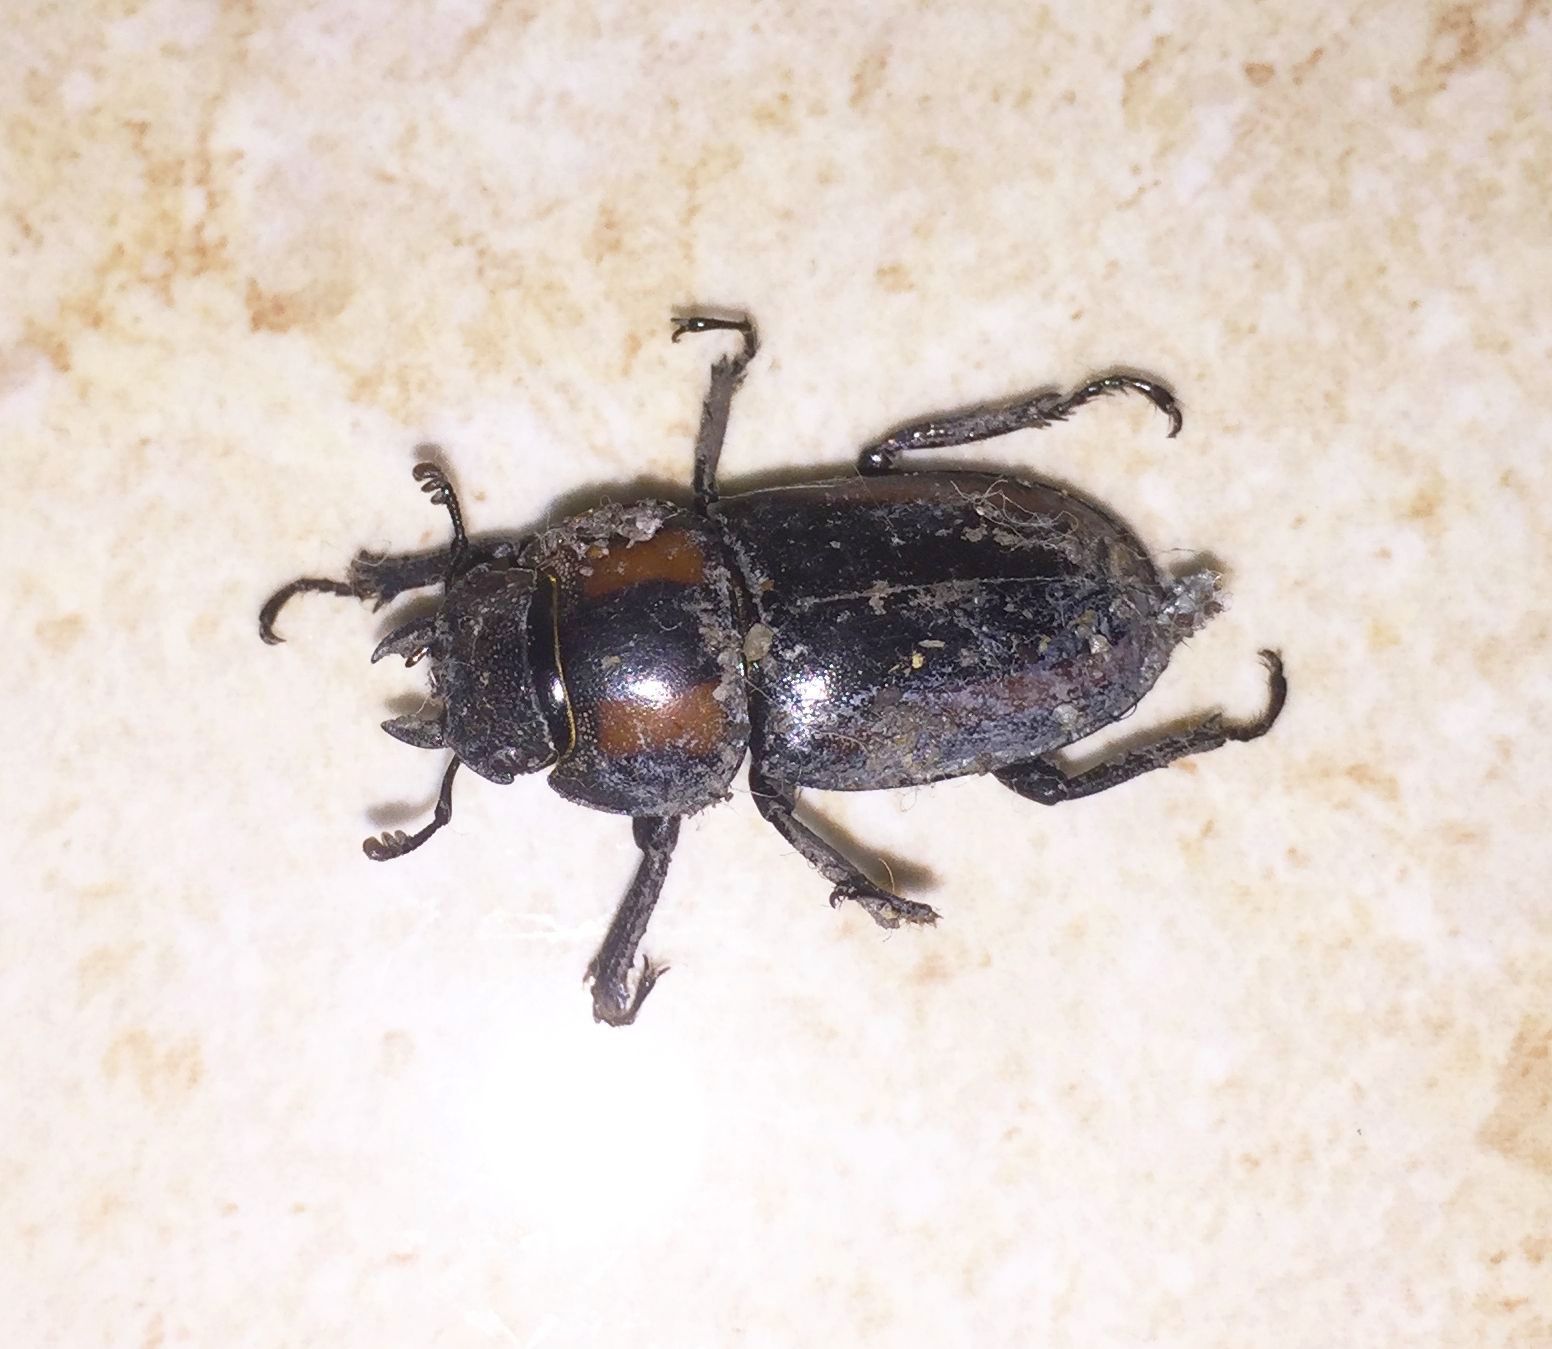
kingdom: Animalia
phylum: Arthropoda
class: Insecta
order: Coleoptera
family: Lucanidae
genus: Prosopocoilus
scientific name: Prosopocoilus biplagiatus
